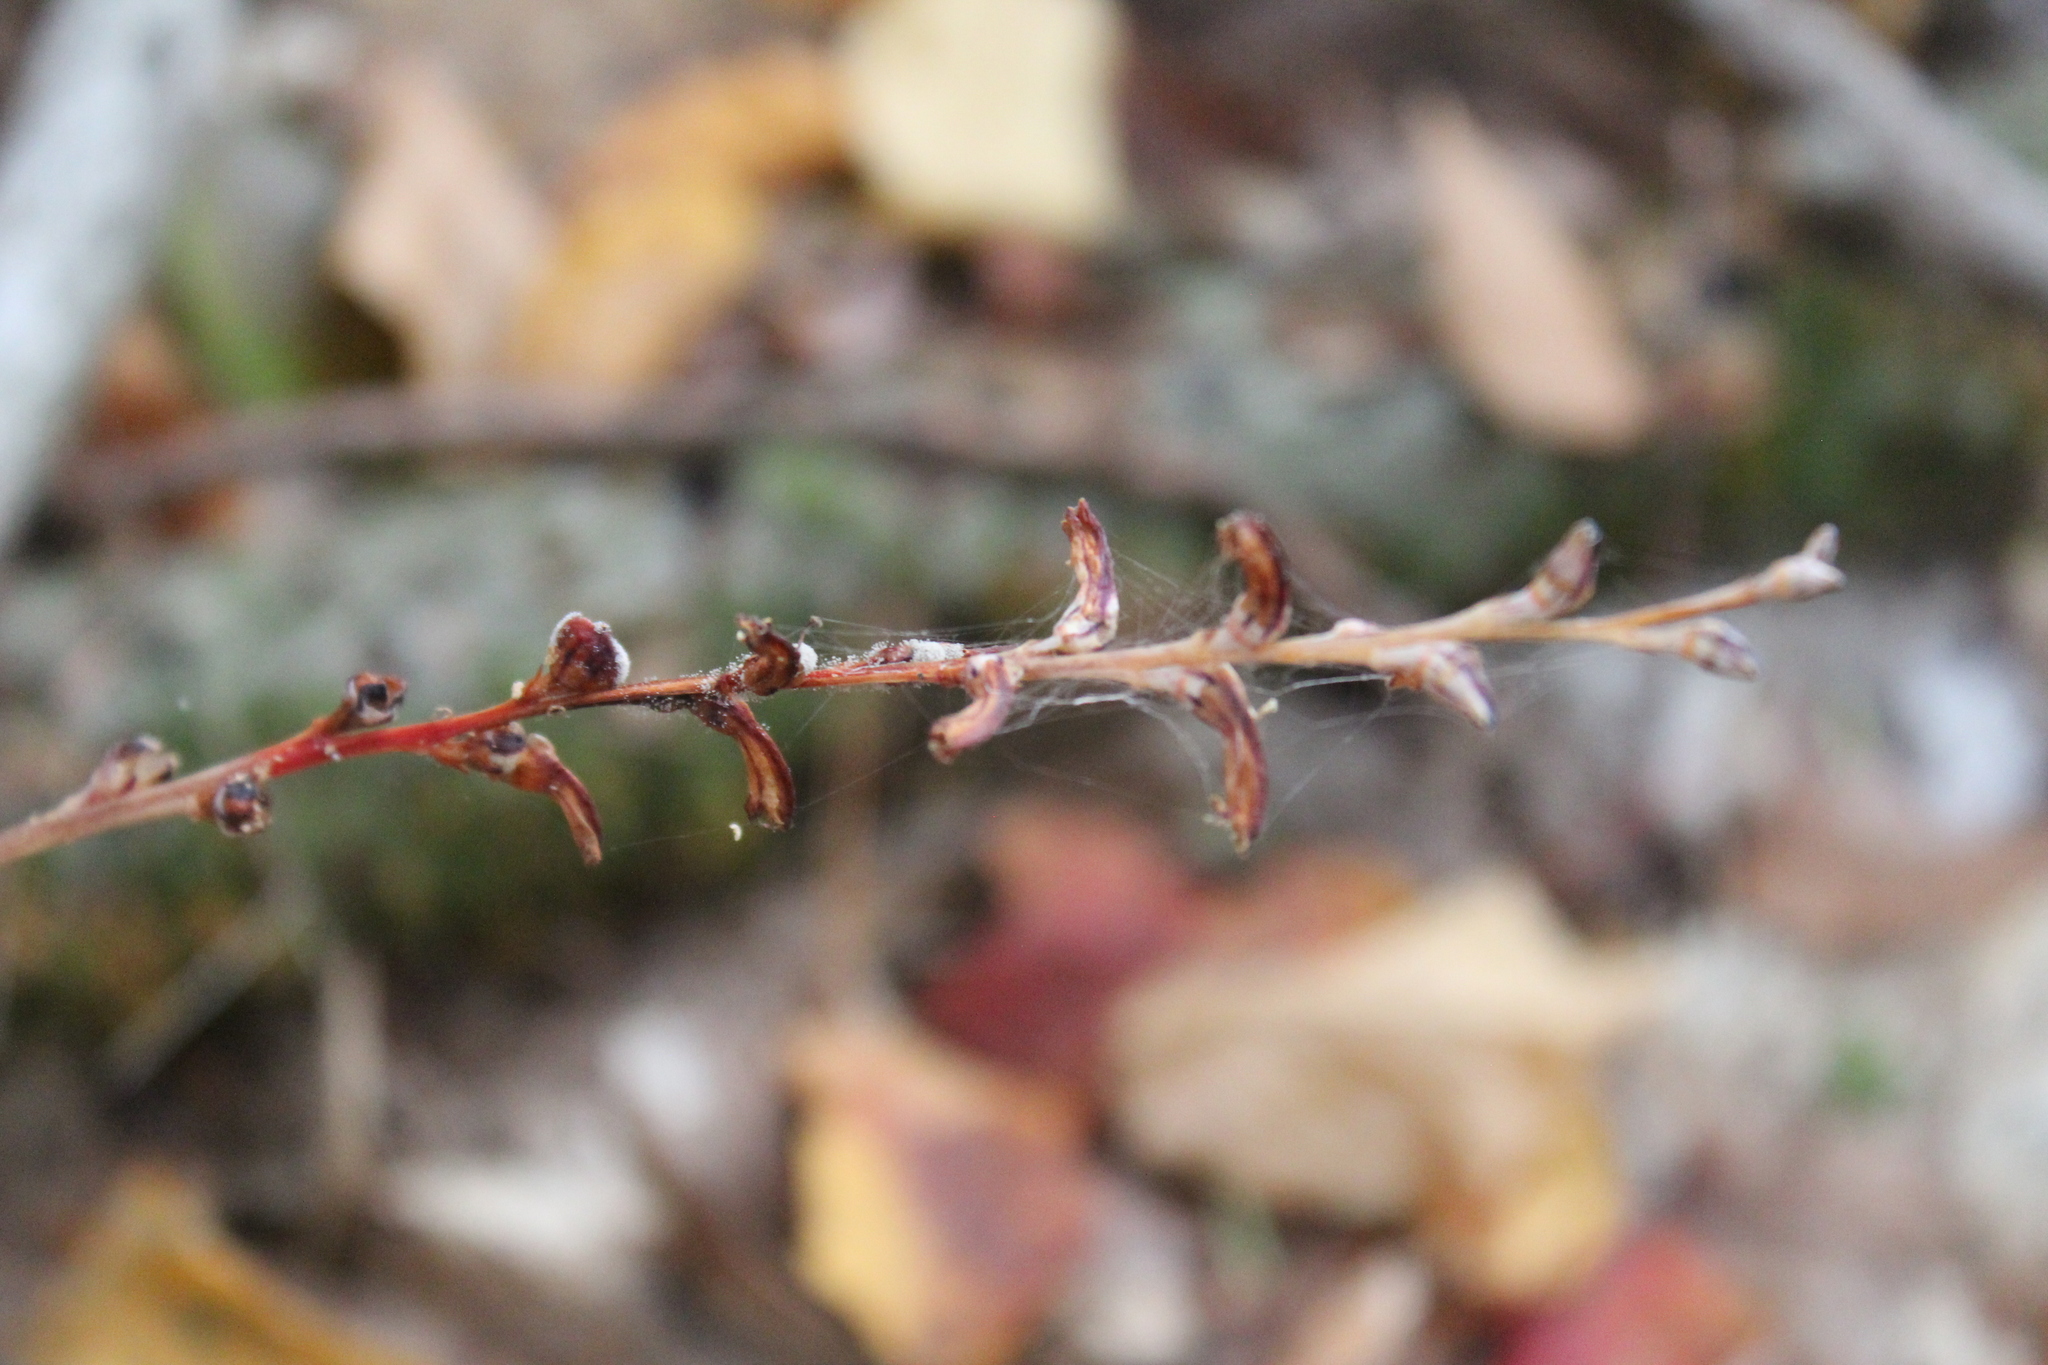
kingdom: Plantae
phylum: Tracheophyta
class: Magnoliopsida
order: Lamiales
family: Orobanchaceae
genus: Epifagus
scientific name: Epifagus virginiana
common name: Beechdrops
